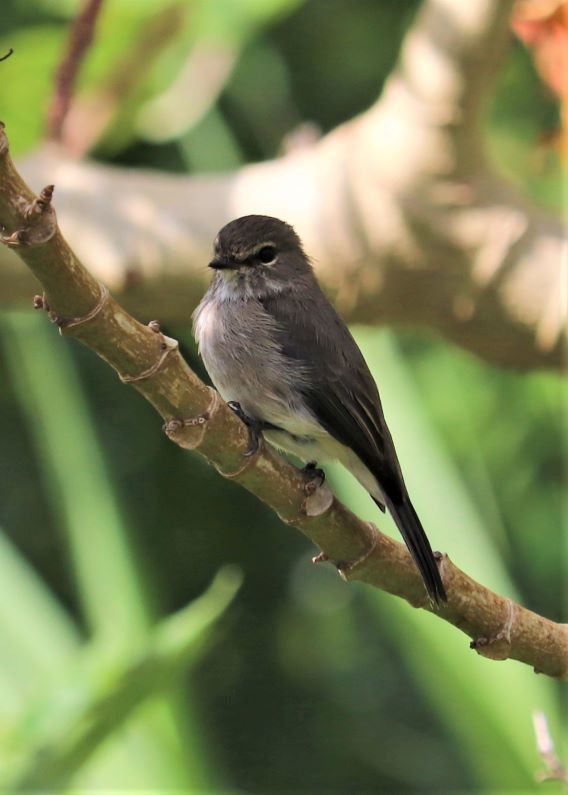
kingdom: Animalia
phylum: Chordata
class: Aves
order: Passeriformes
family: Muscicapidae
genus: Muscicapa
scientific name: Muscicapa adusta
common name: African dusky flycatcher
